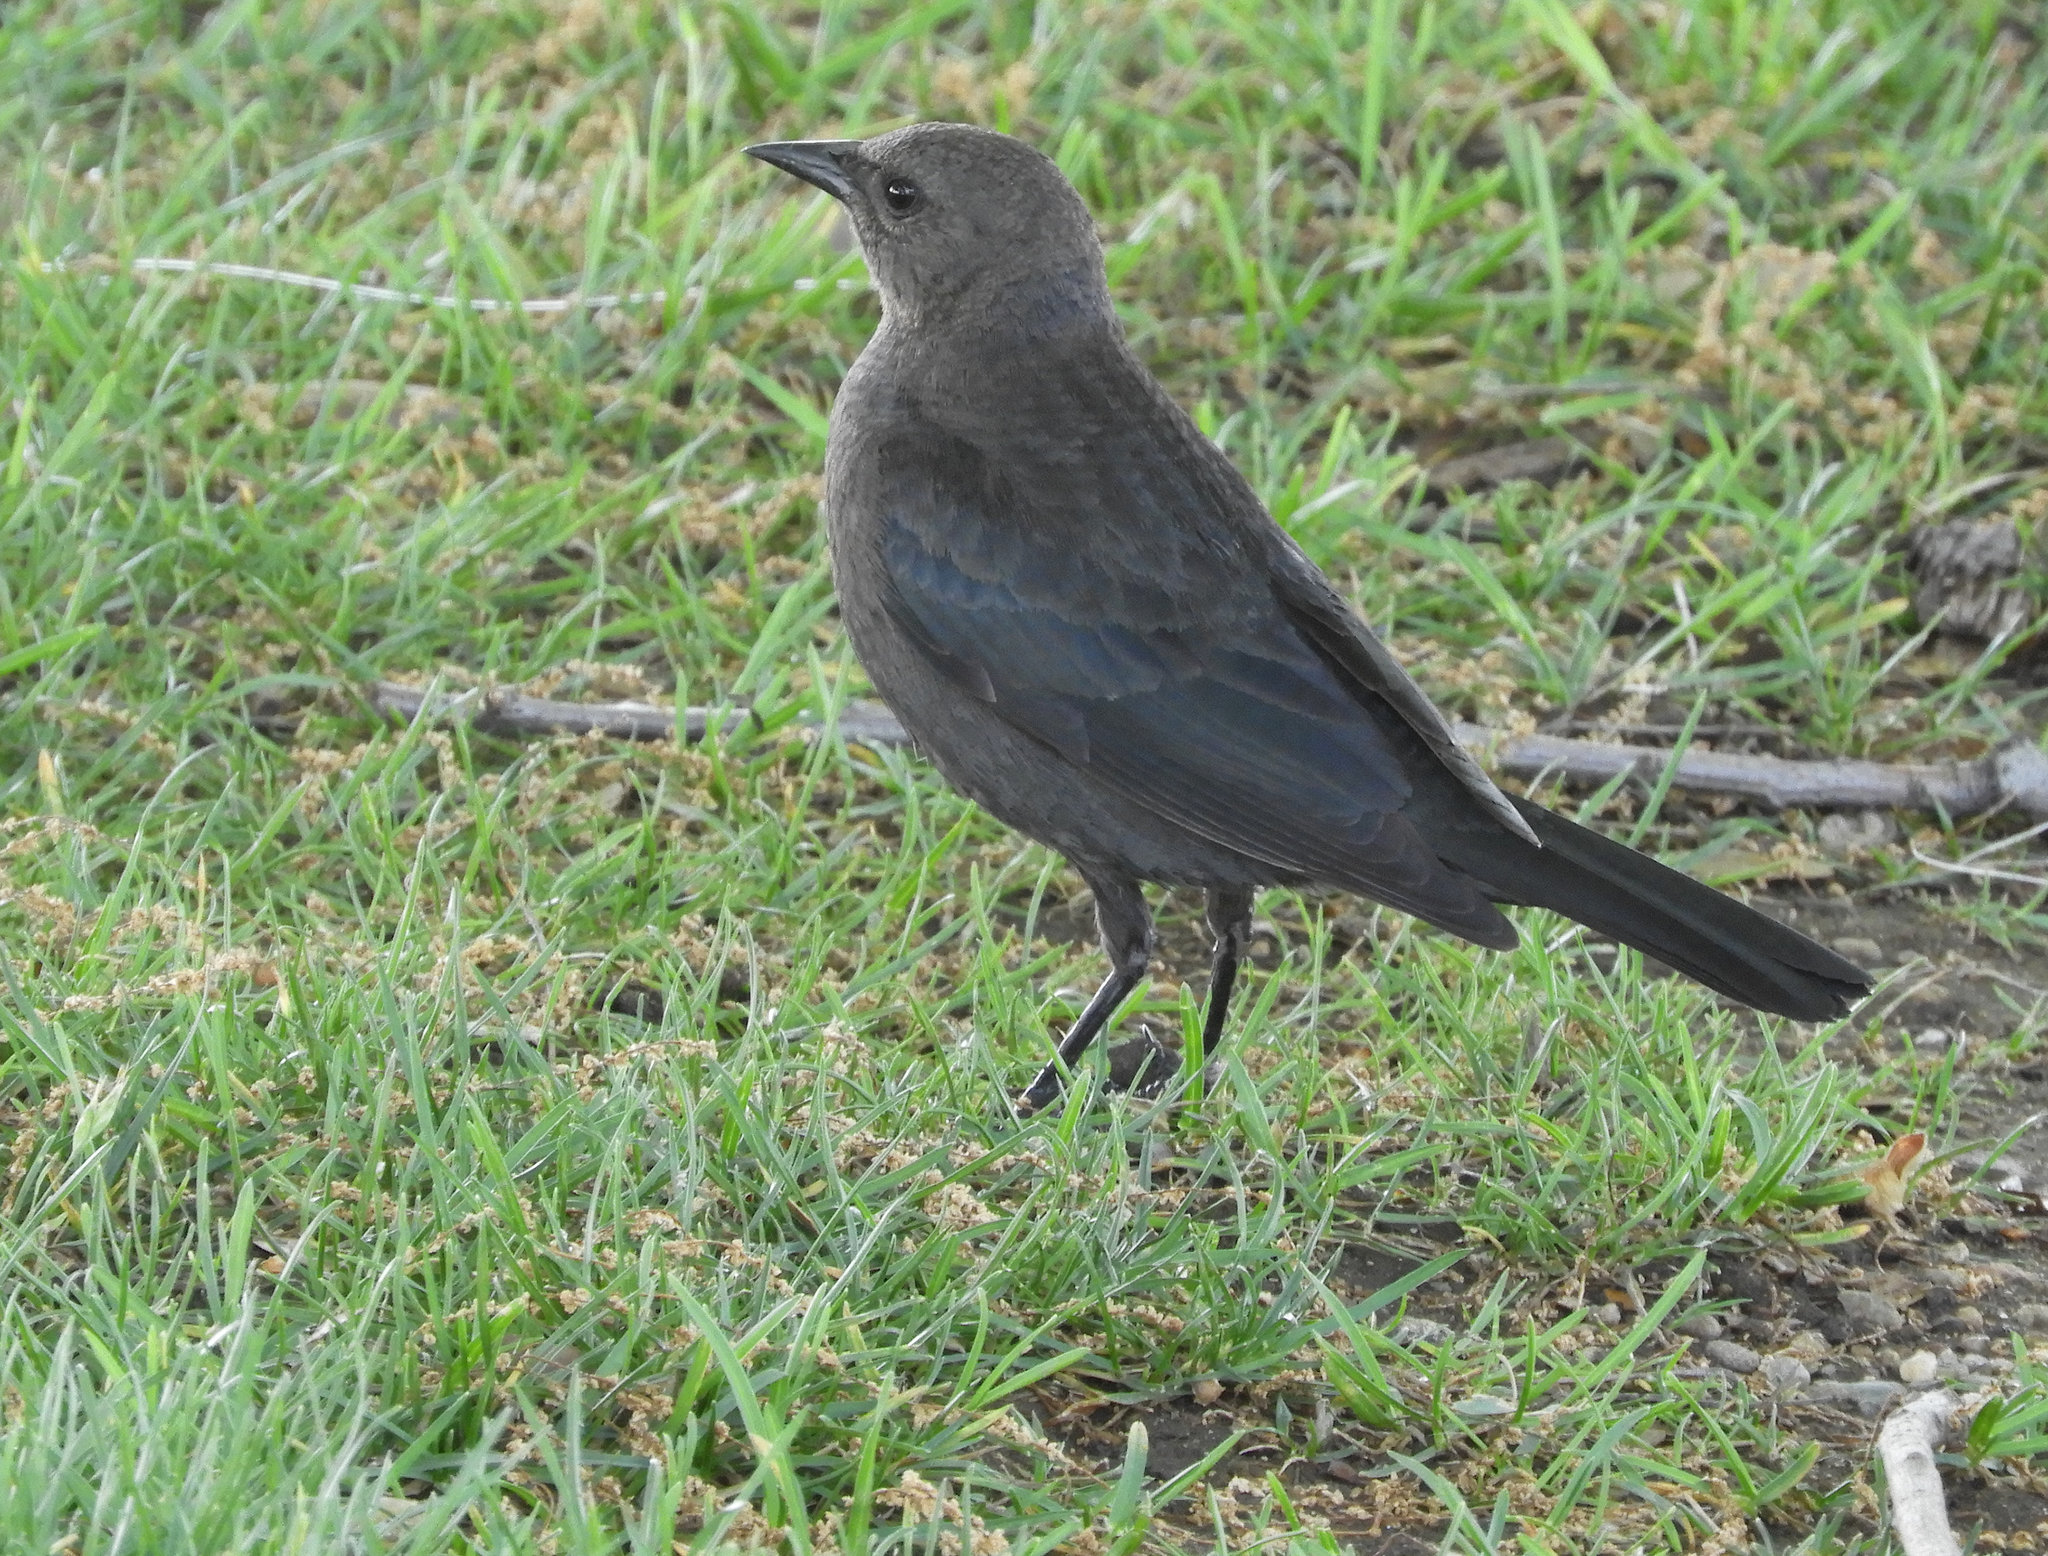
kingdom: Animalia
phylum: Chordata
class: Aves
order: Passeriformes
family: Icteridae
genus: Euphagus
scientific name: Euphagus cyanocephalus
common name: Brewer's blackbird
